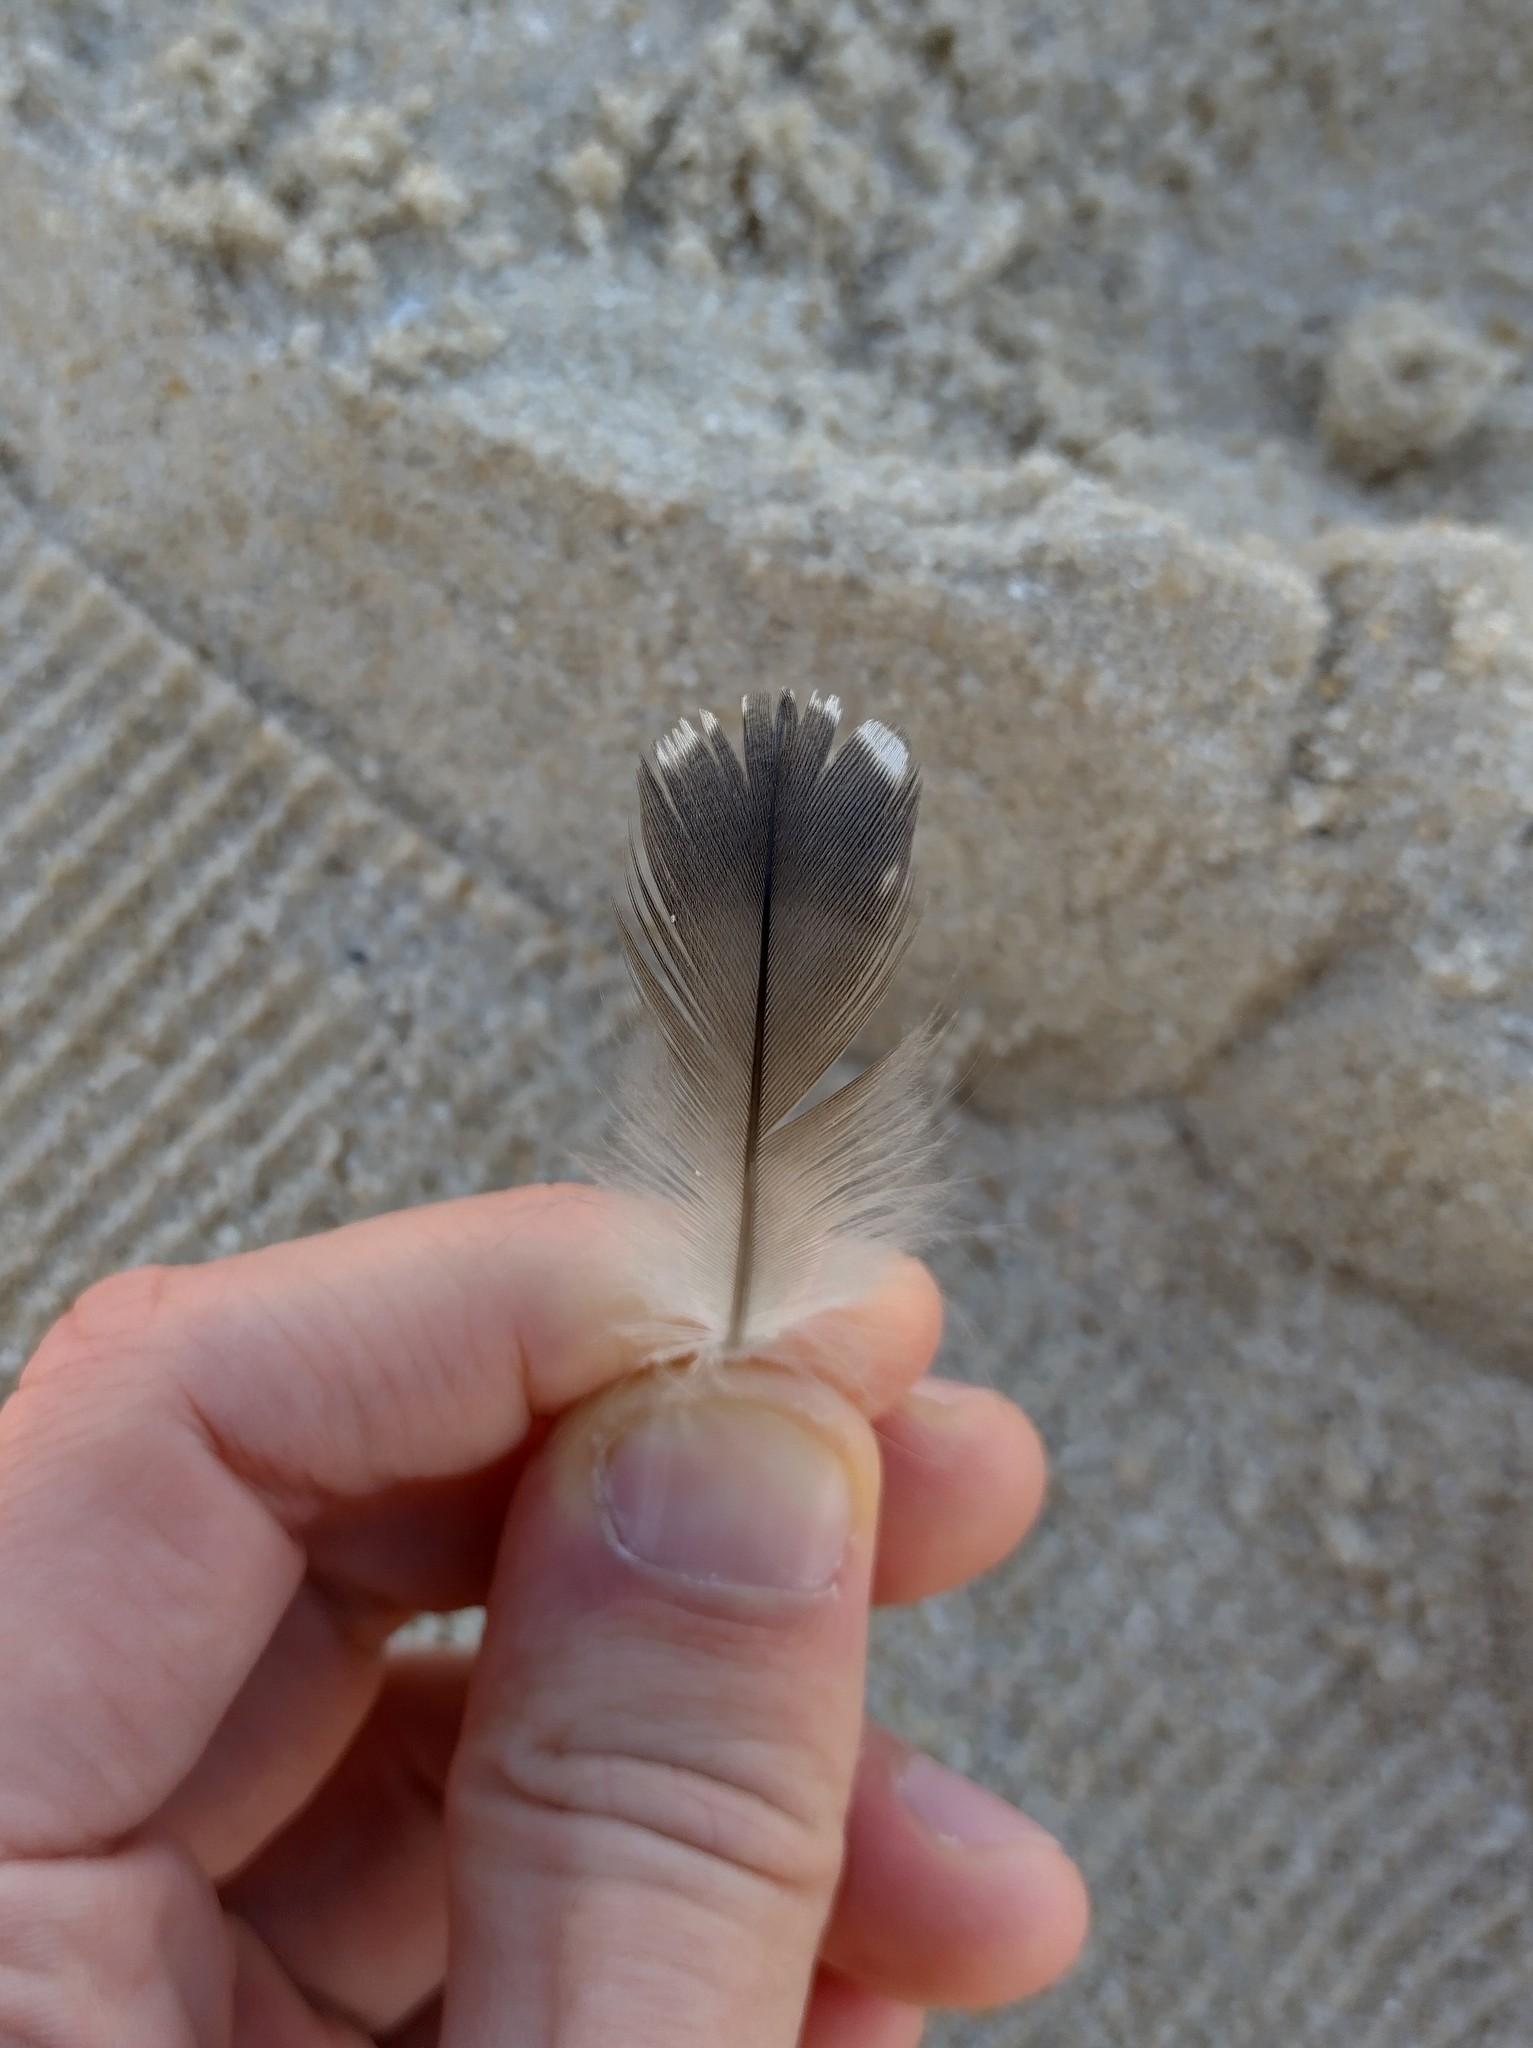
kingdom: Animalia
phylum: Chordata
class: Aves
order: Gaviiformes
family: Gaviidae
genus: Gavia
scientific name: Gavia stellata
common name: Red-throated loon
